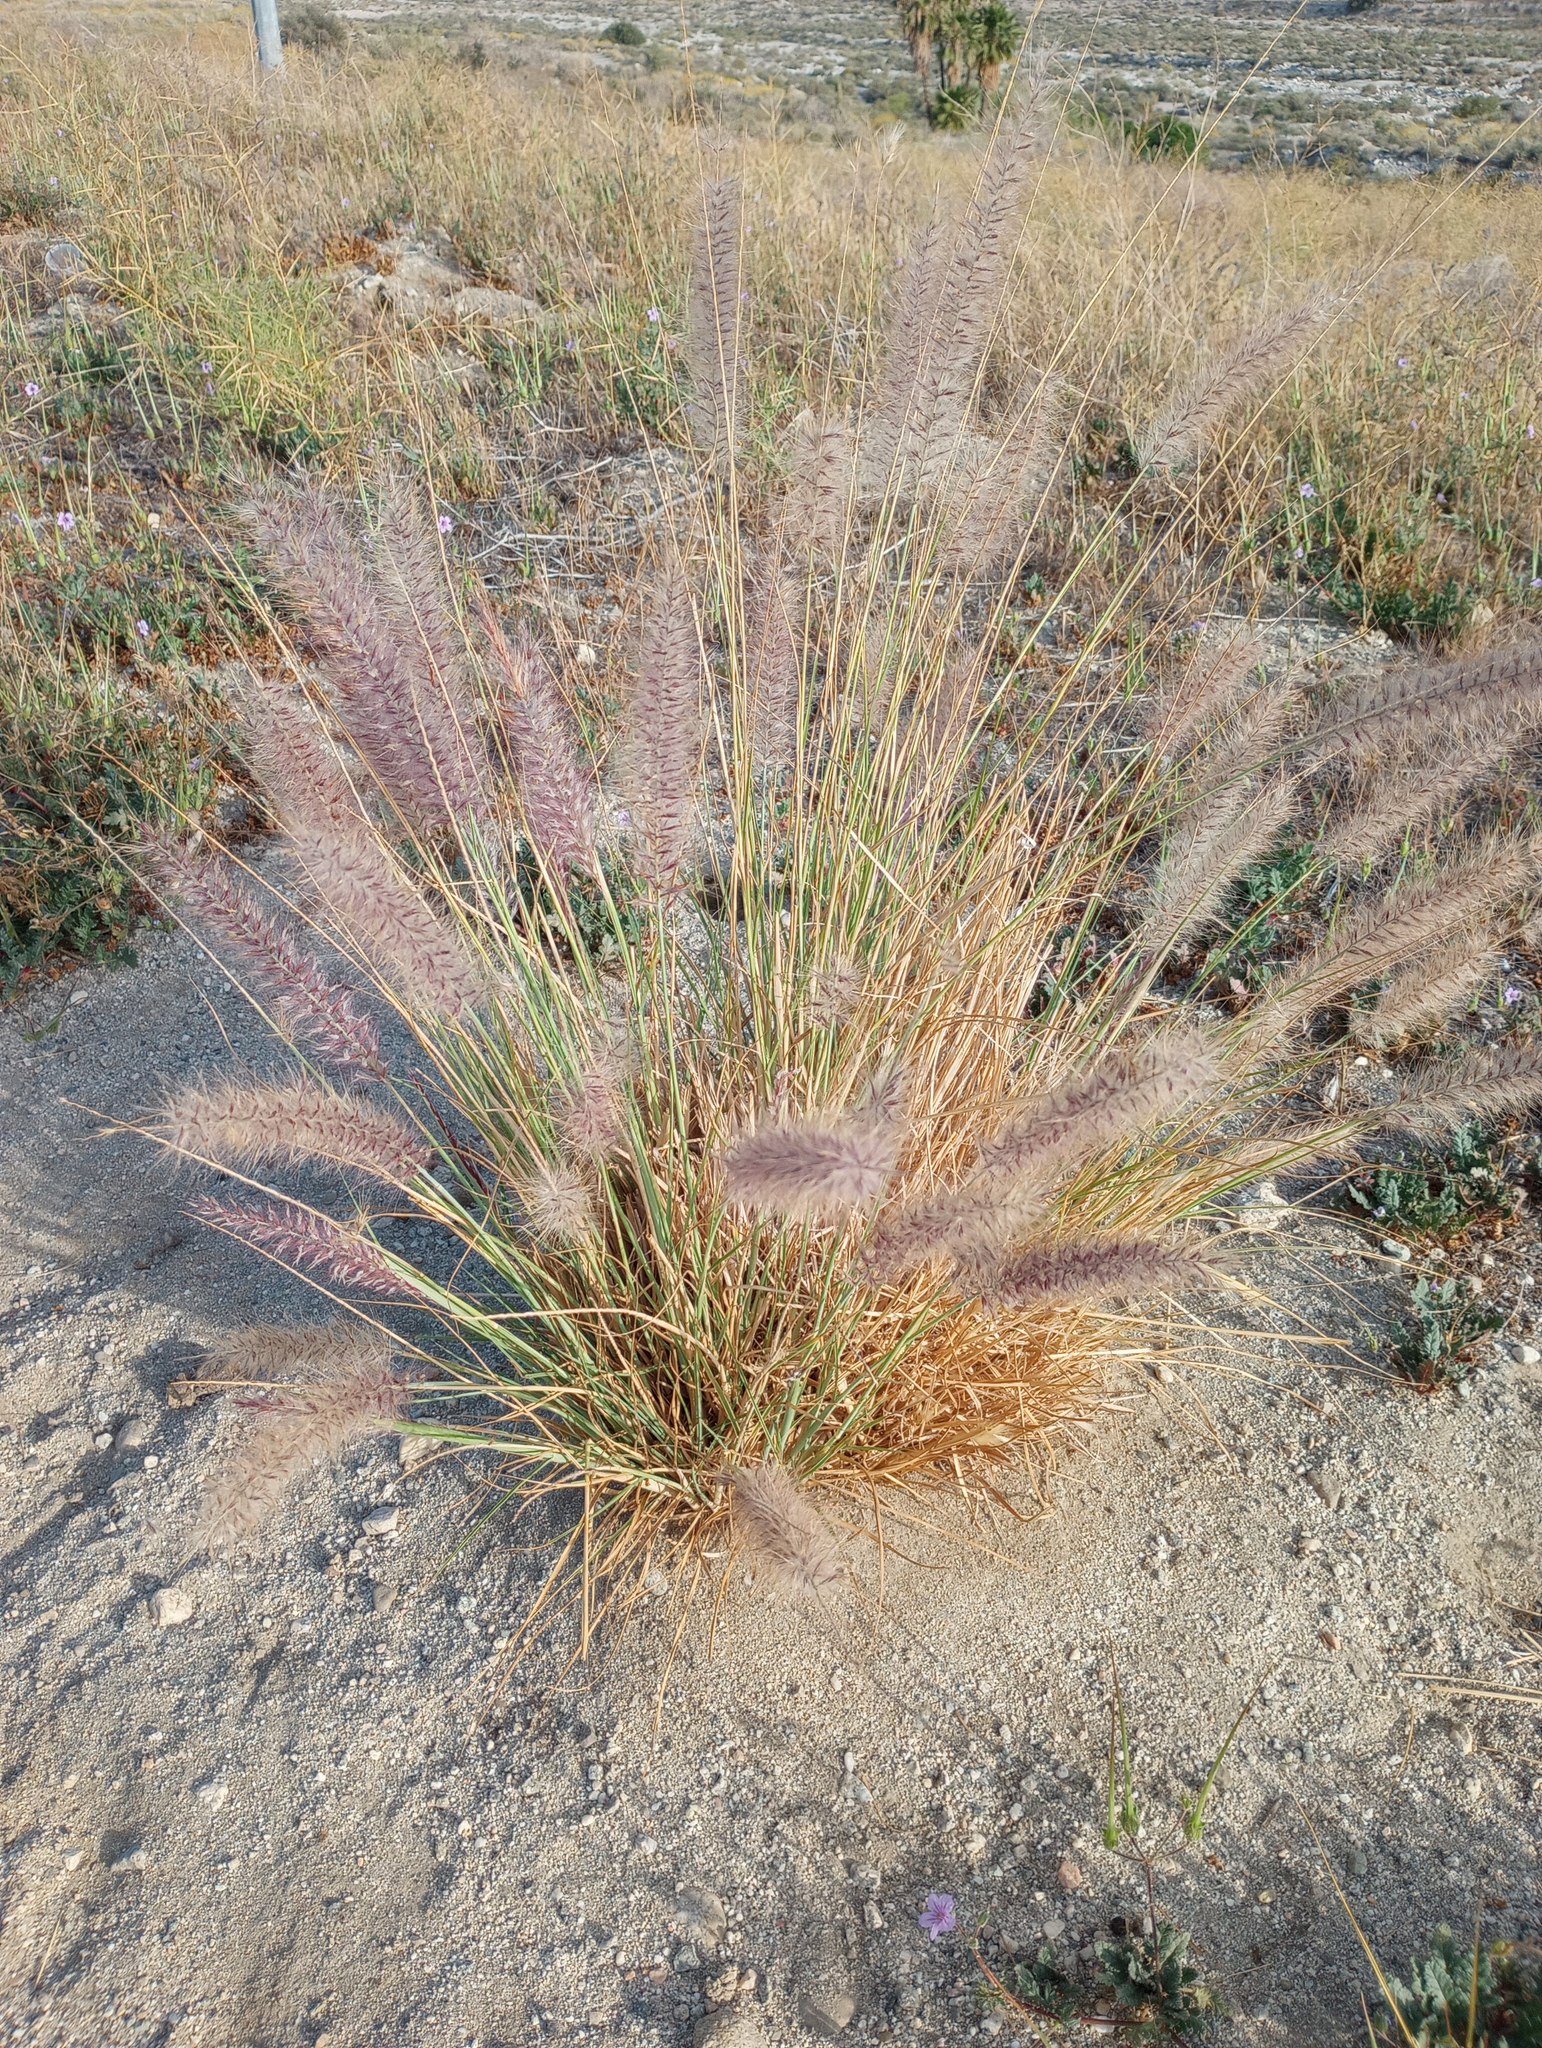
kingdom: Plantae
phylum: Tracheophyta
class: Liliopsida
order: Poales
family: Poaceae
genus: Cenchrus
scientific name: Cenchrus setaceus
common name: Crimson fountaingrass
